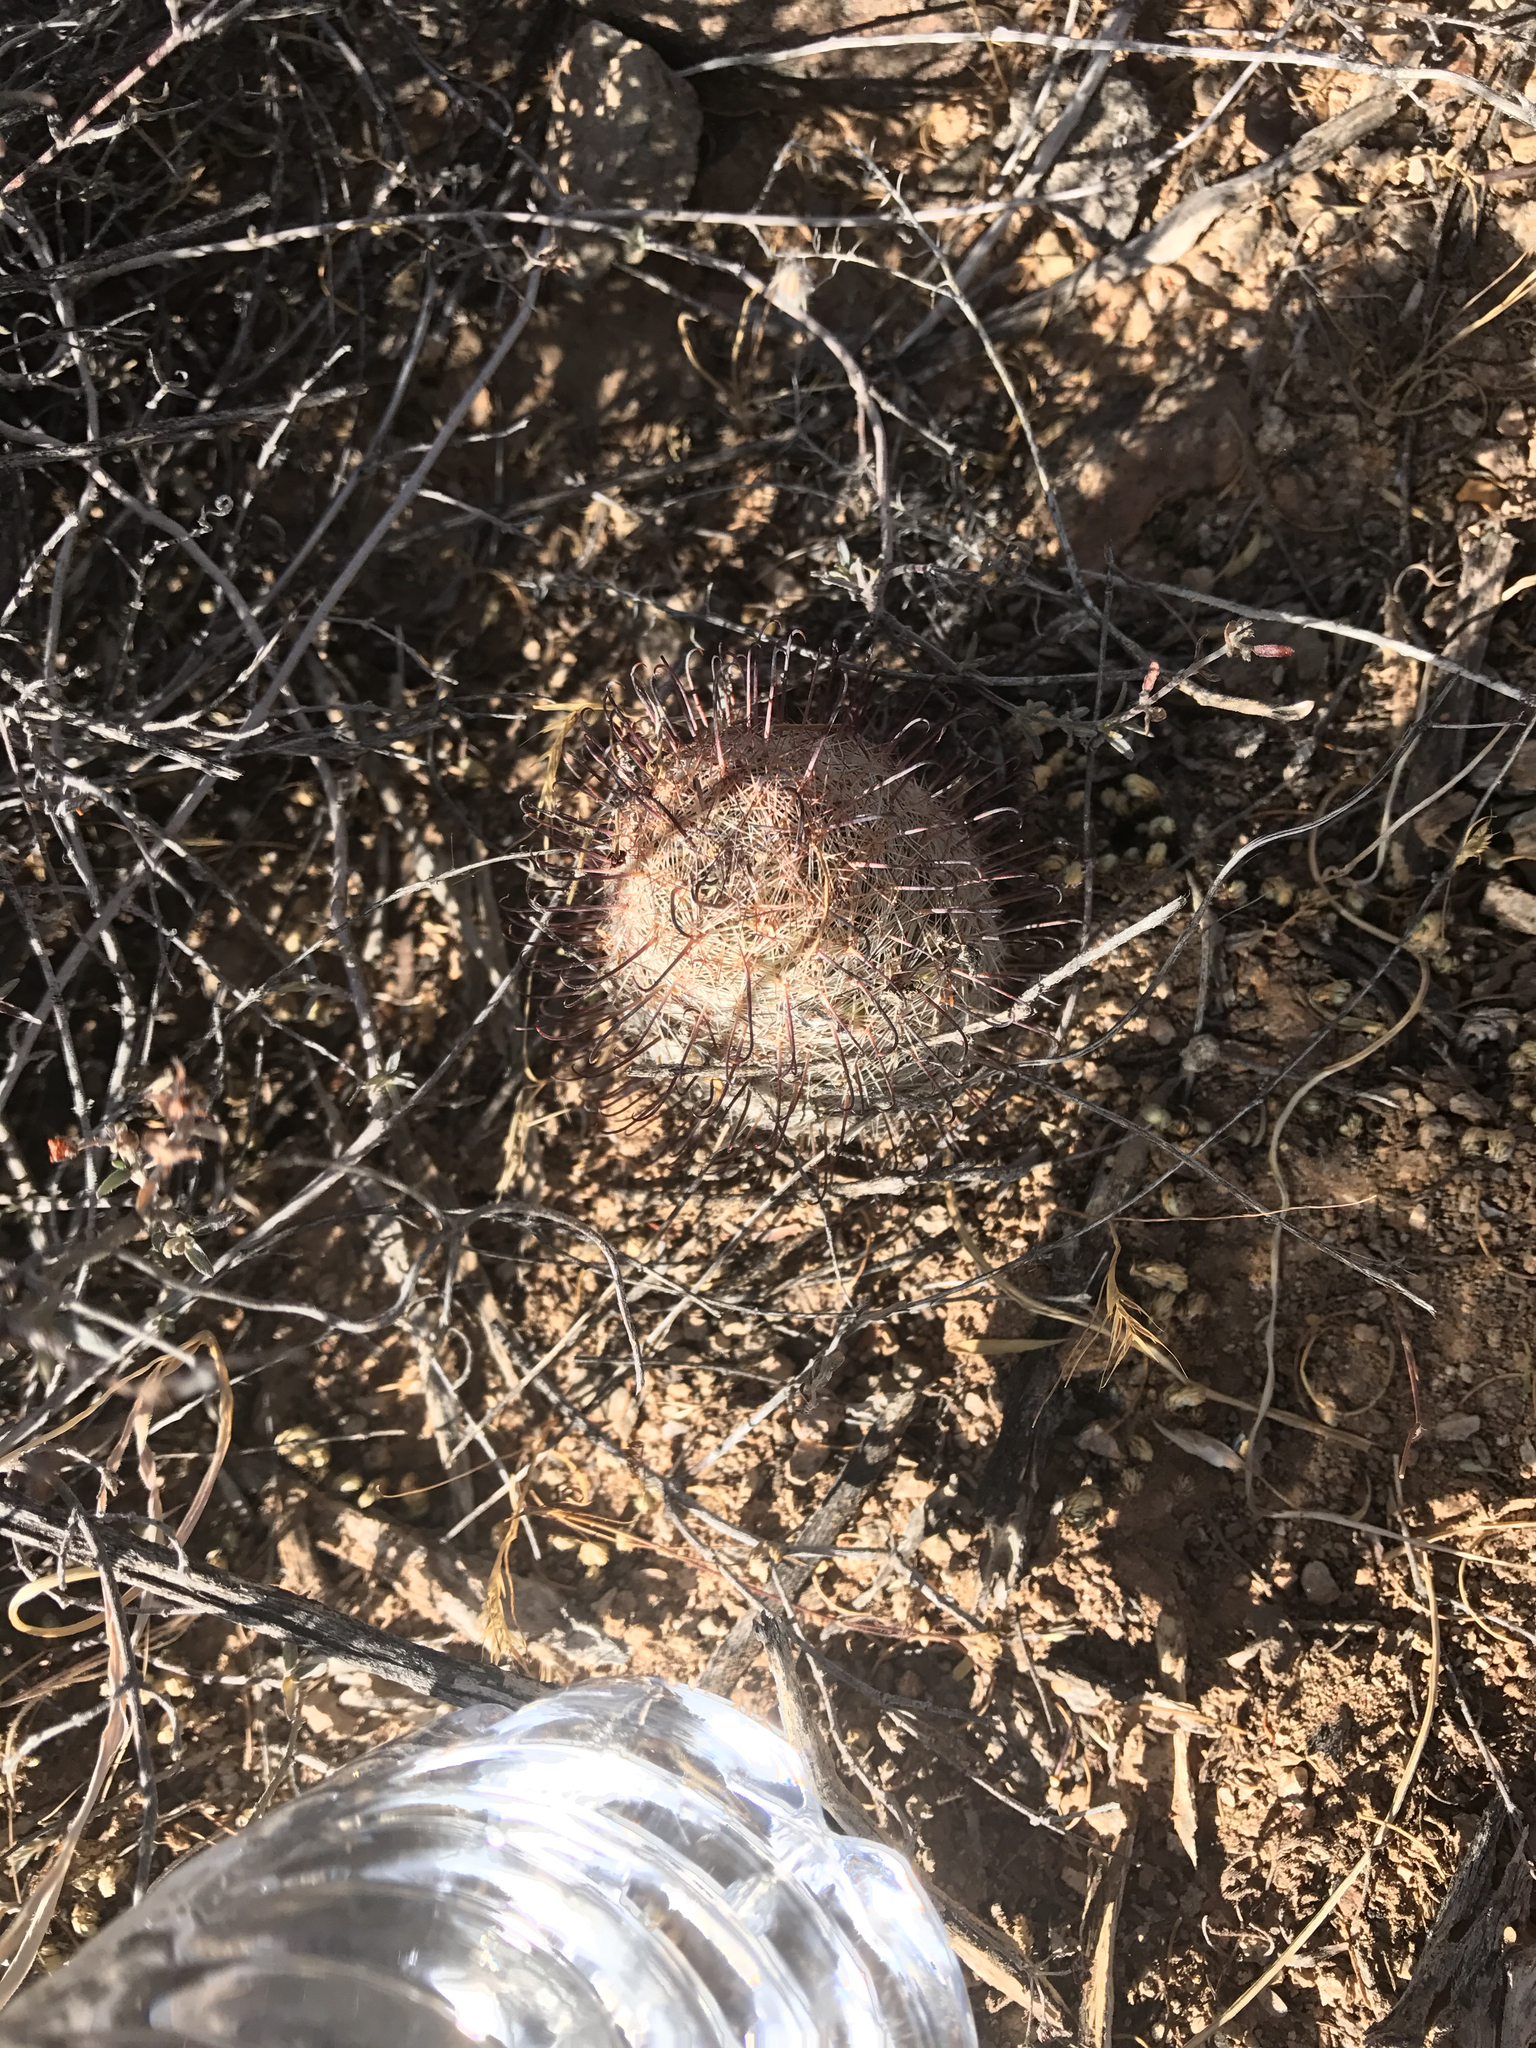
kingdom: Plantae
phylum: Tracheophyta
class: Magnoliopsida
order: Caryophyllales
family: Cactaceae
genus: Cochemiea
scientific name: Cochemiea grahamii
